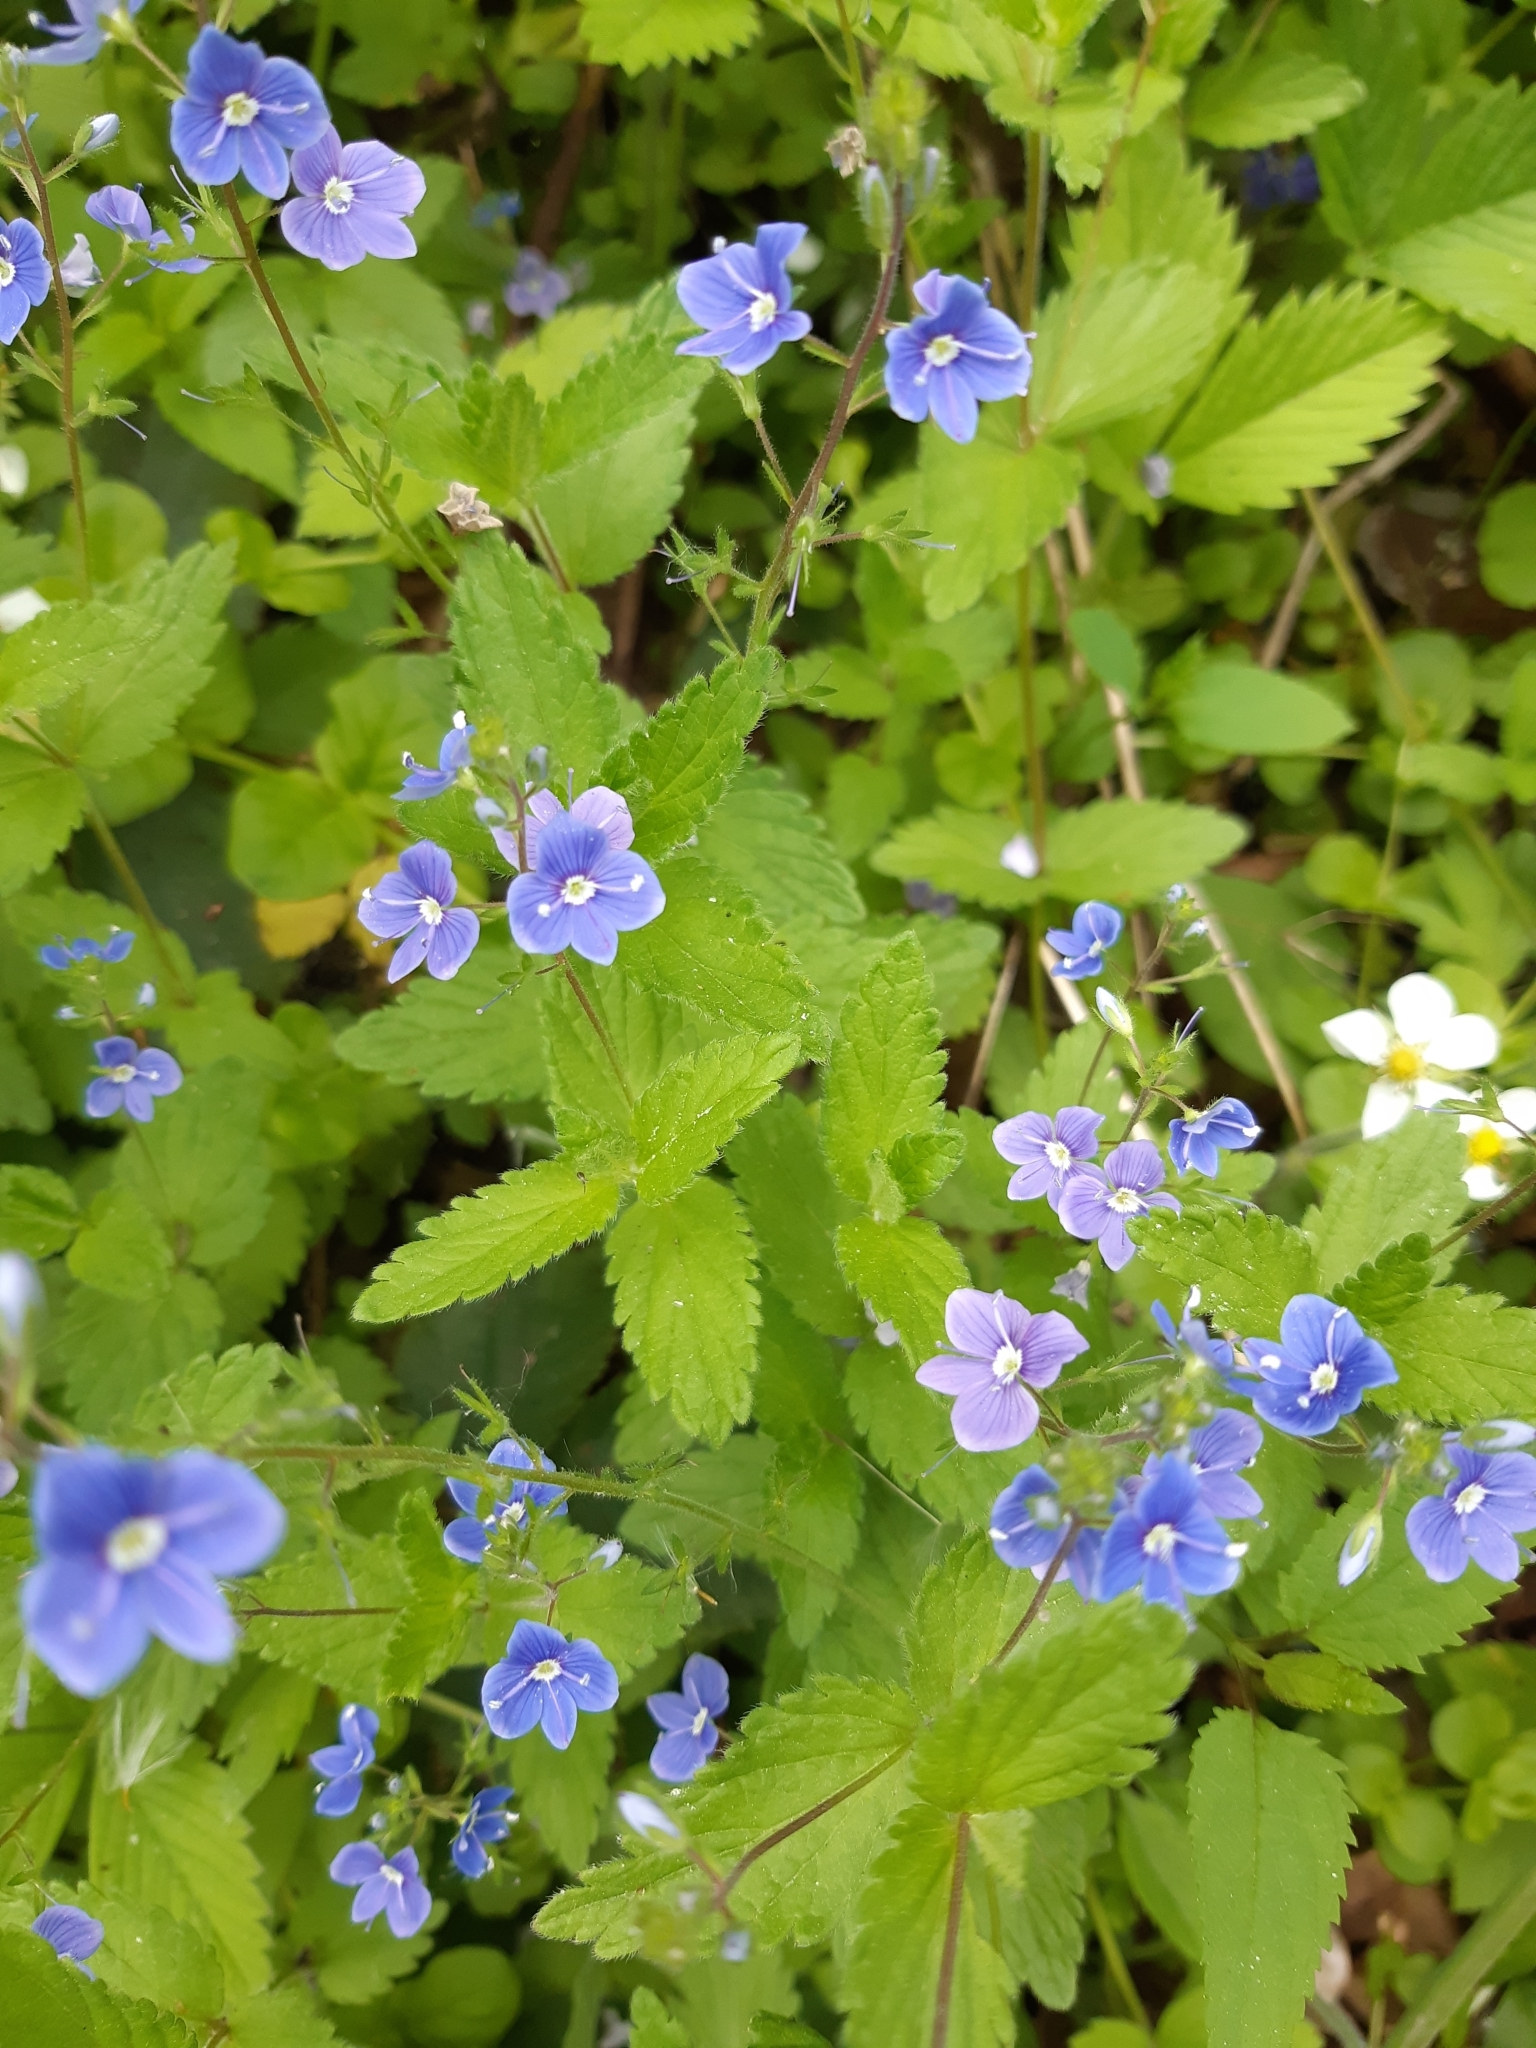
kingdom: Plantae
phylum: Tracheophyta
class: Magnoliopsida
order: Lamiales
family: Plantaginaceae
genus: Veronica
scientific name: Veronica chamaedrys
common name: Germander speedwell
